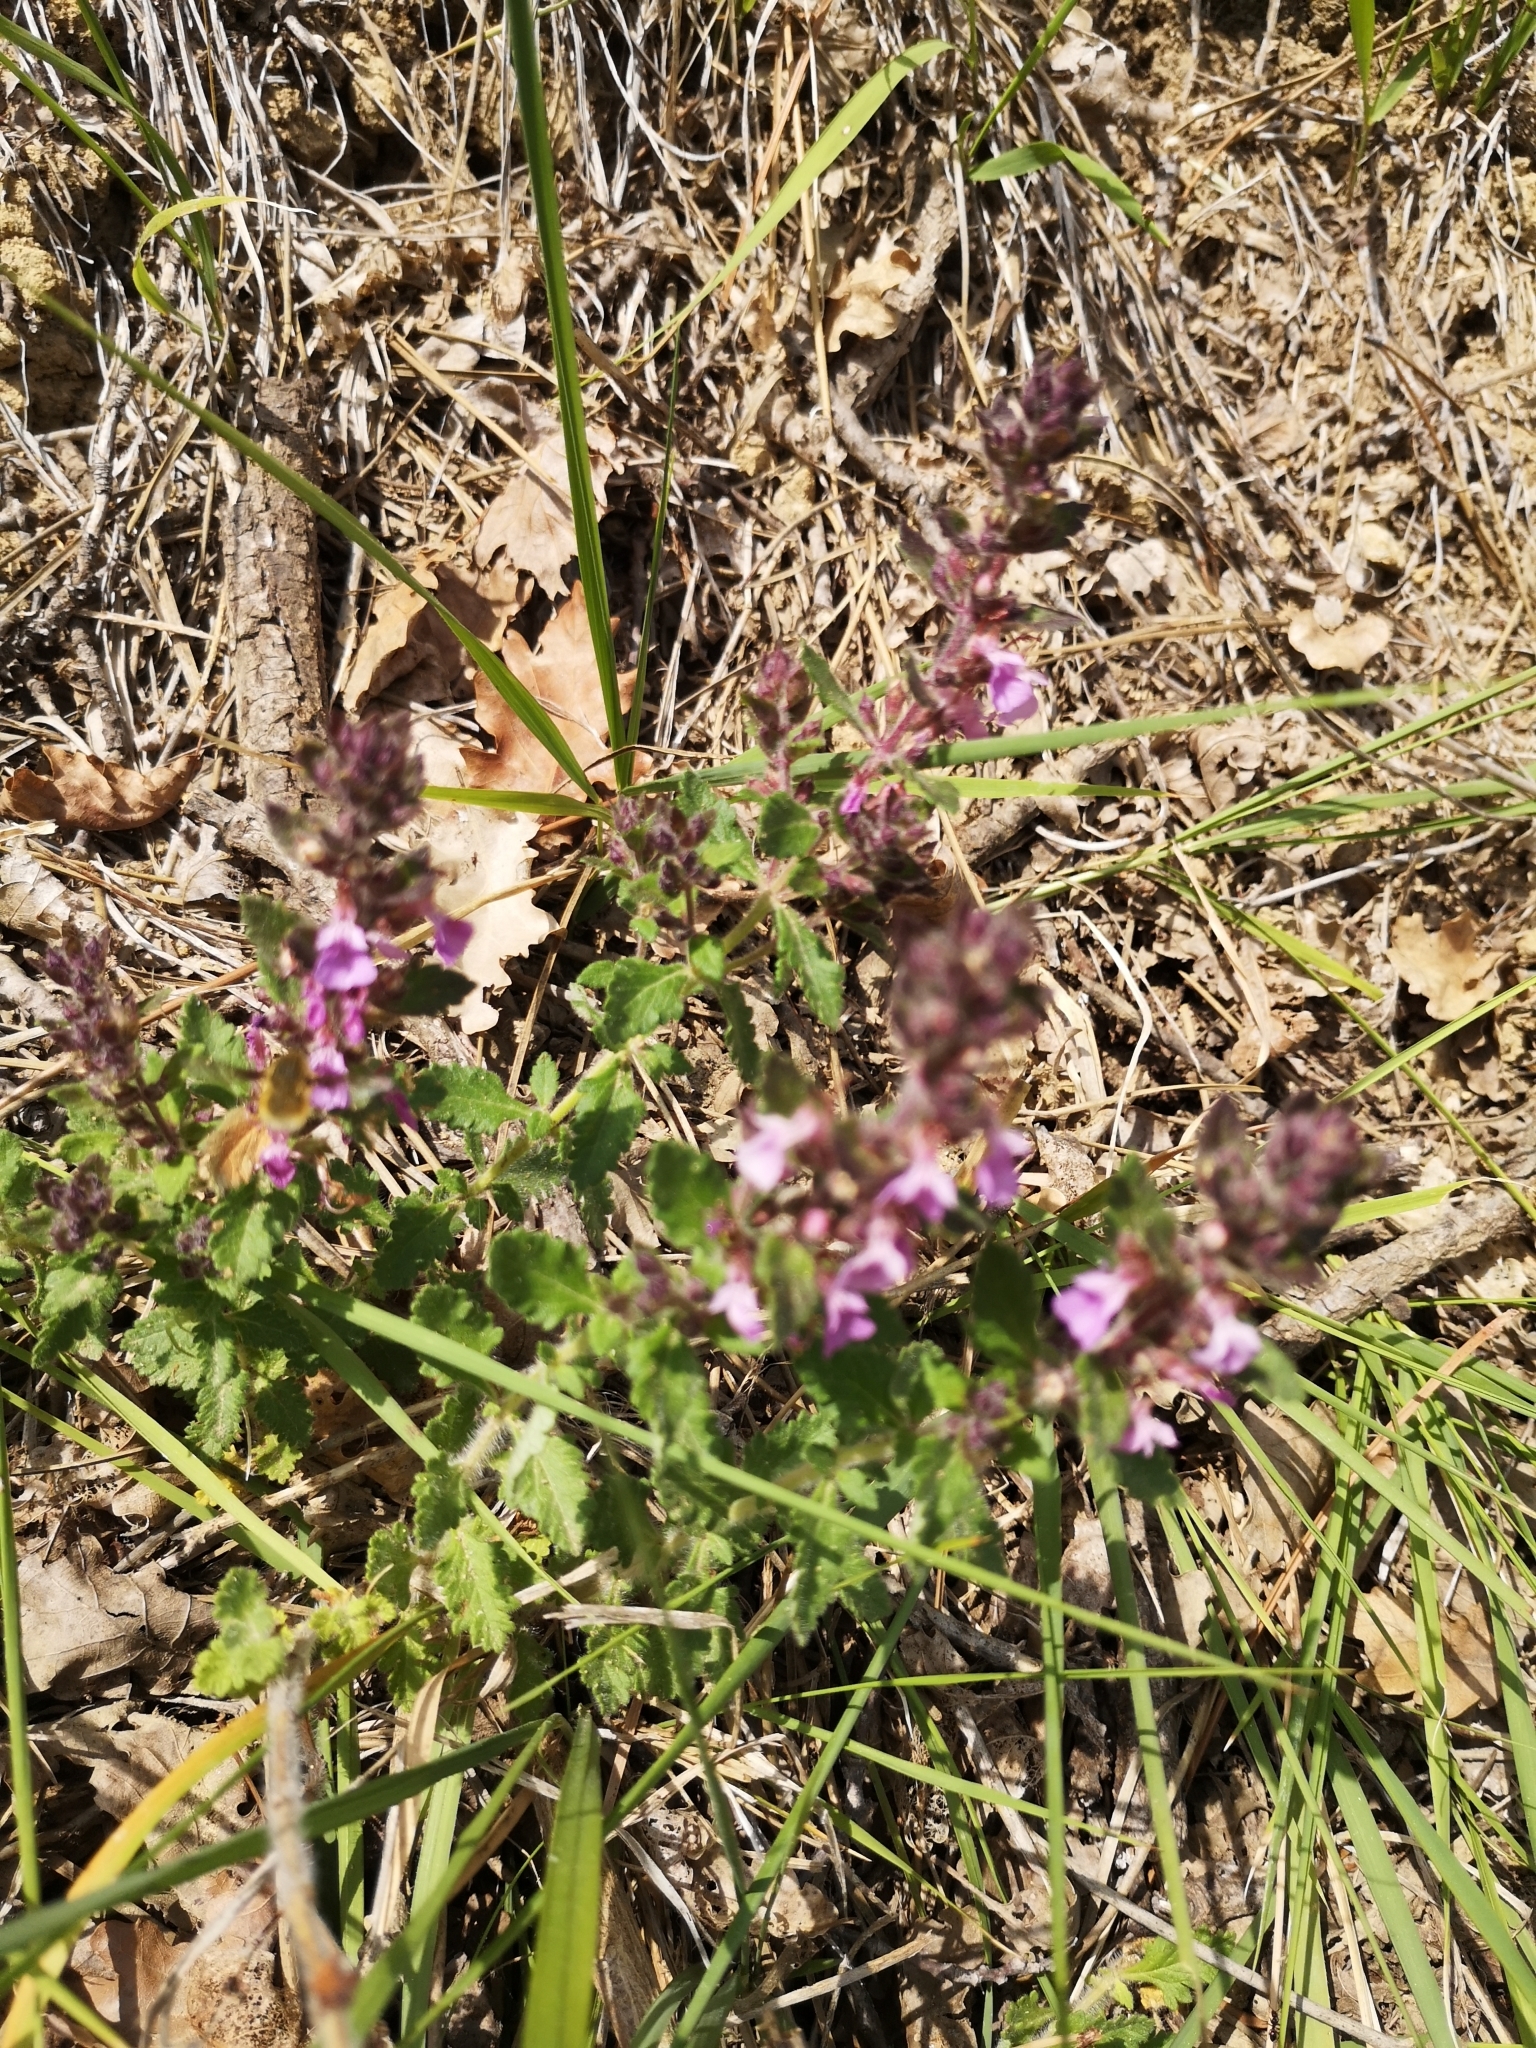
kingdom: Plantae
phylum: Tracheophyta
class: Magnoliopsida
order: Lamiales
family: Lamiaceae
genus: Teucrium
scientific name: Teucrium chamaedrys
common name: Wall germander
